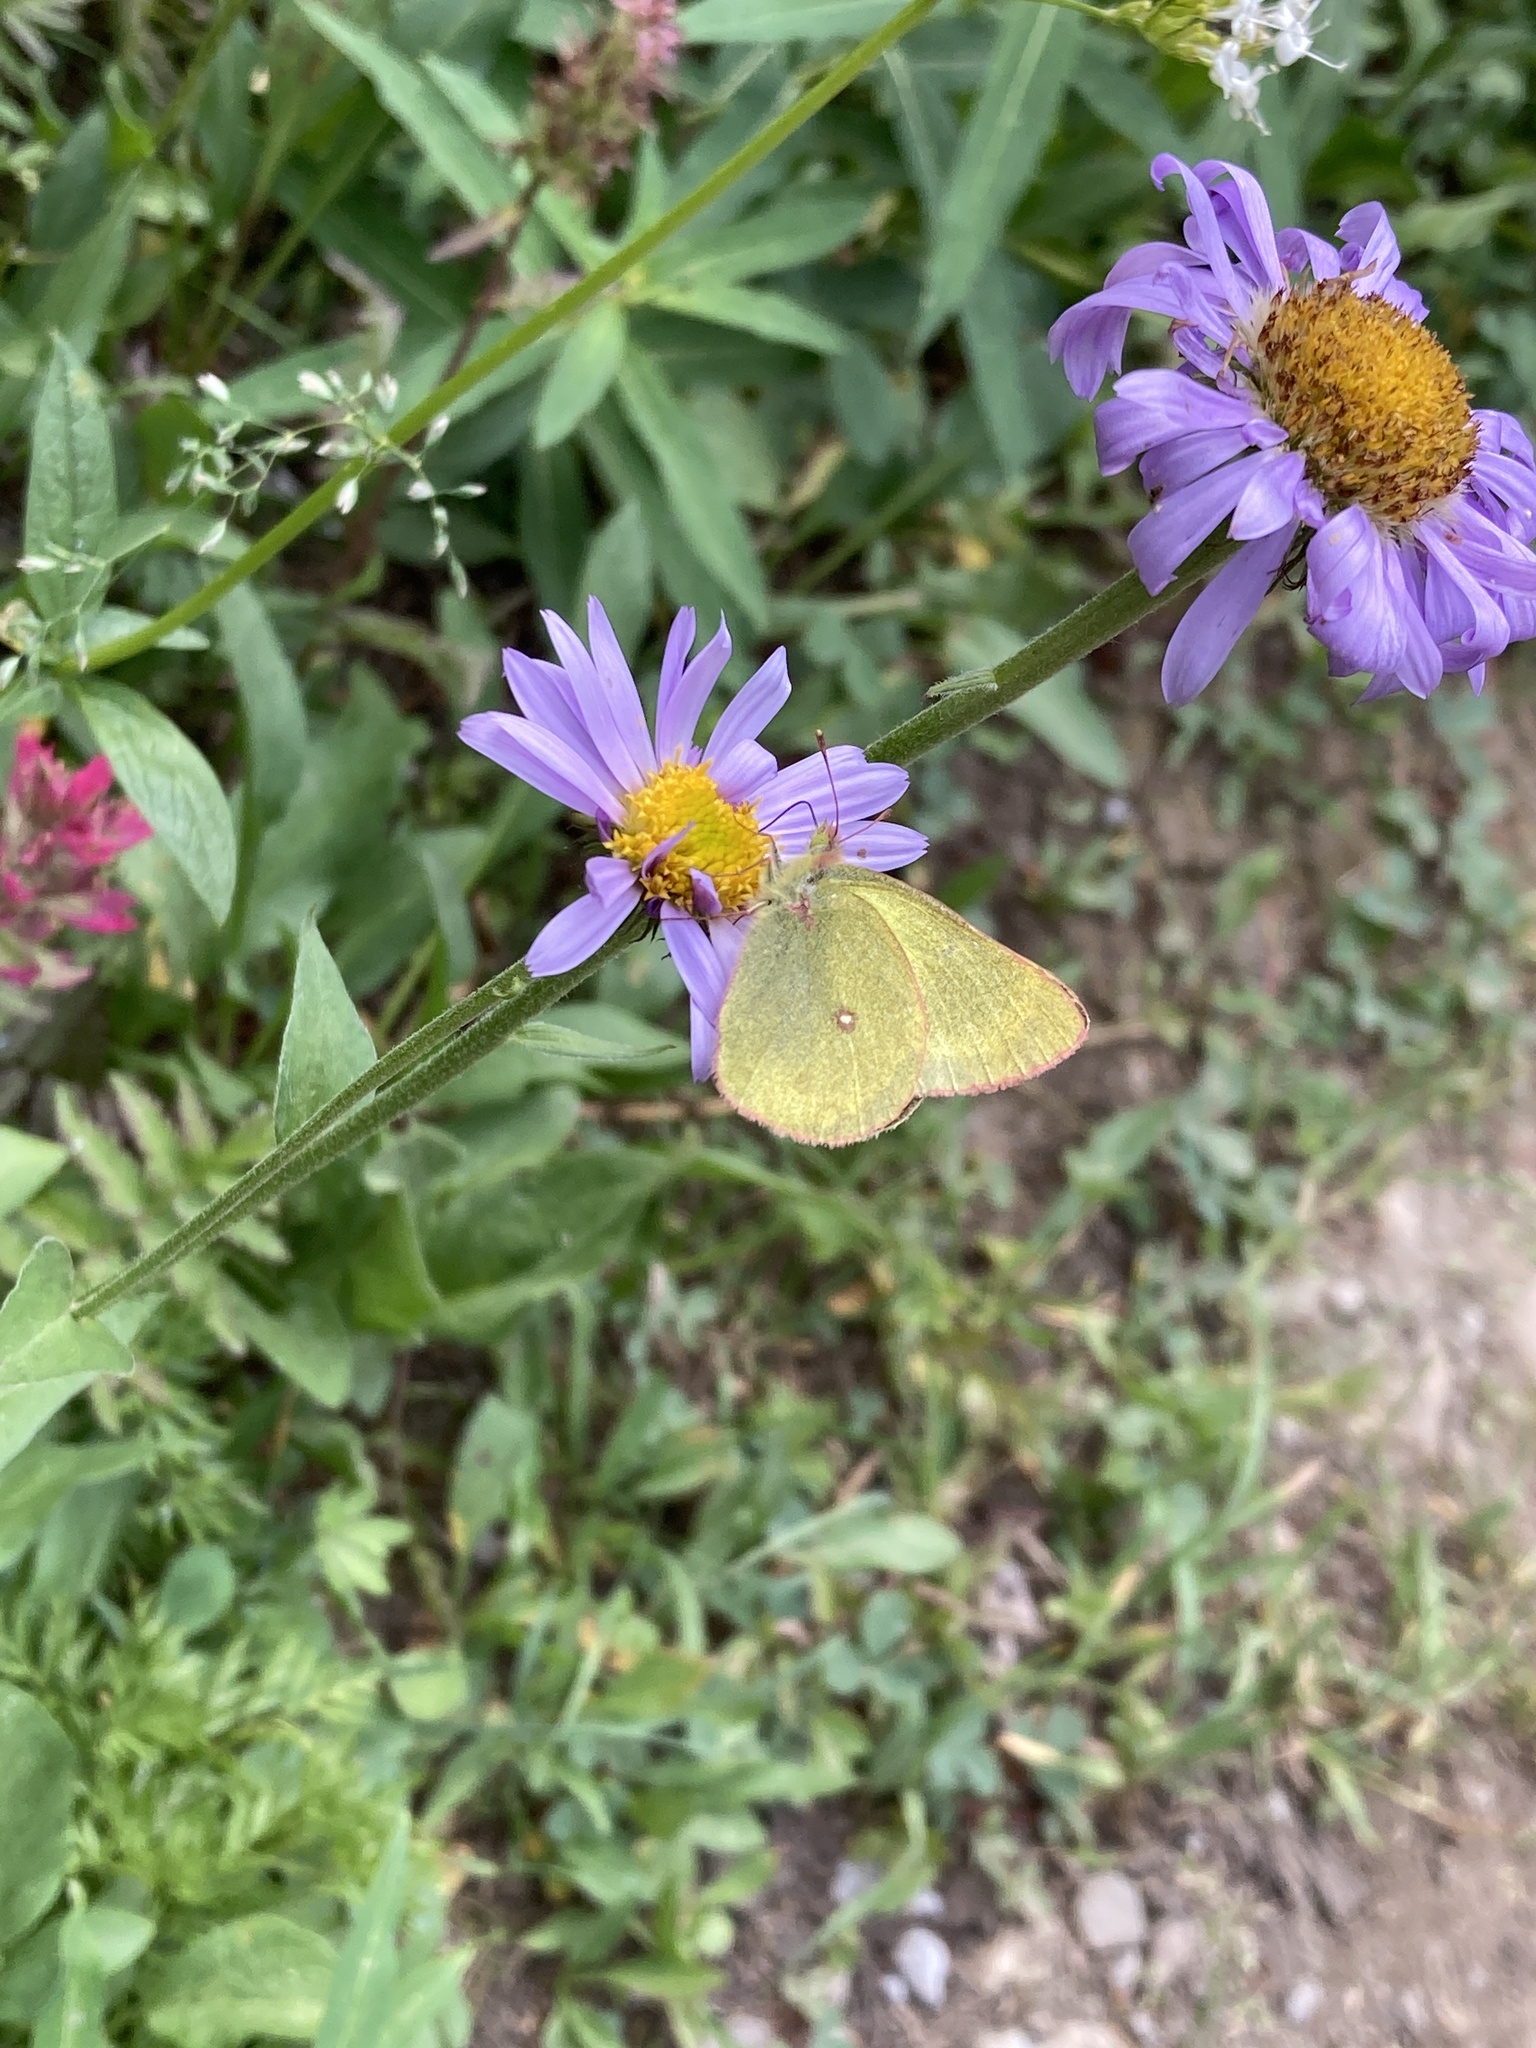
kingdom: Animalia
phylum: Arthropoda
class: Insecta
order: Lepidoptera
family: Pieridae
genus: Colias
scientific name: Colias skinneri
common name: Skinner's pelidne sulphur
